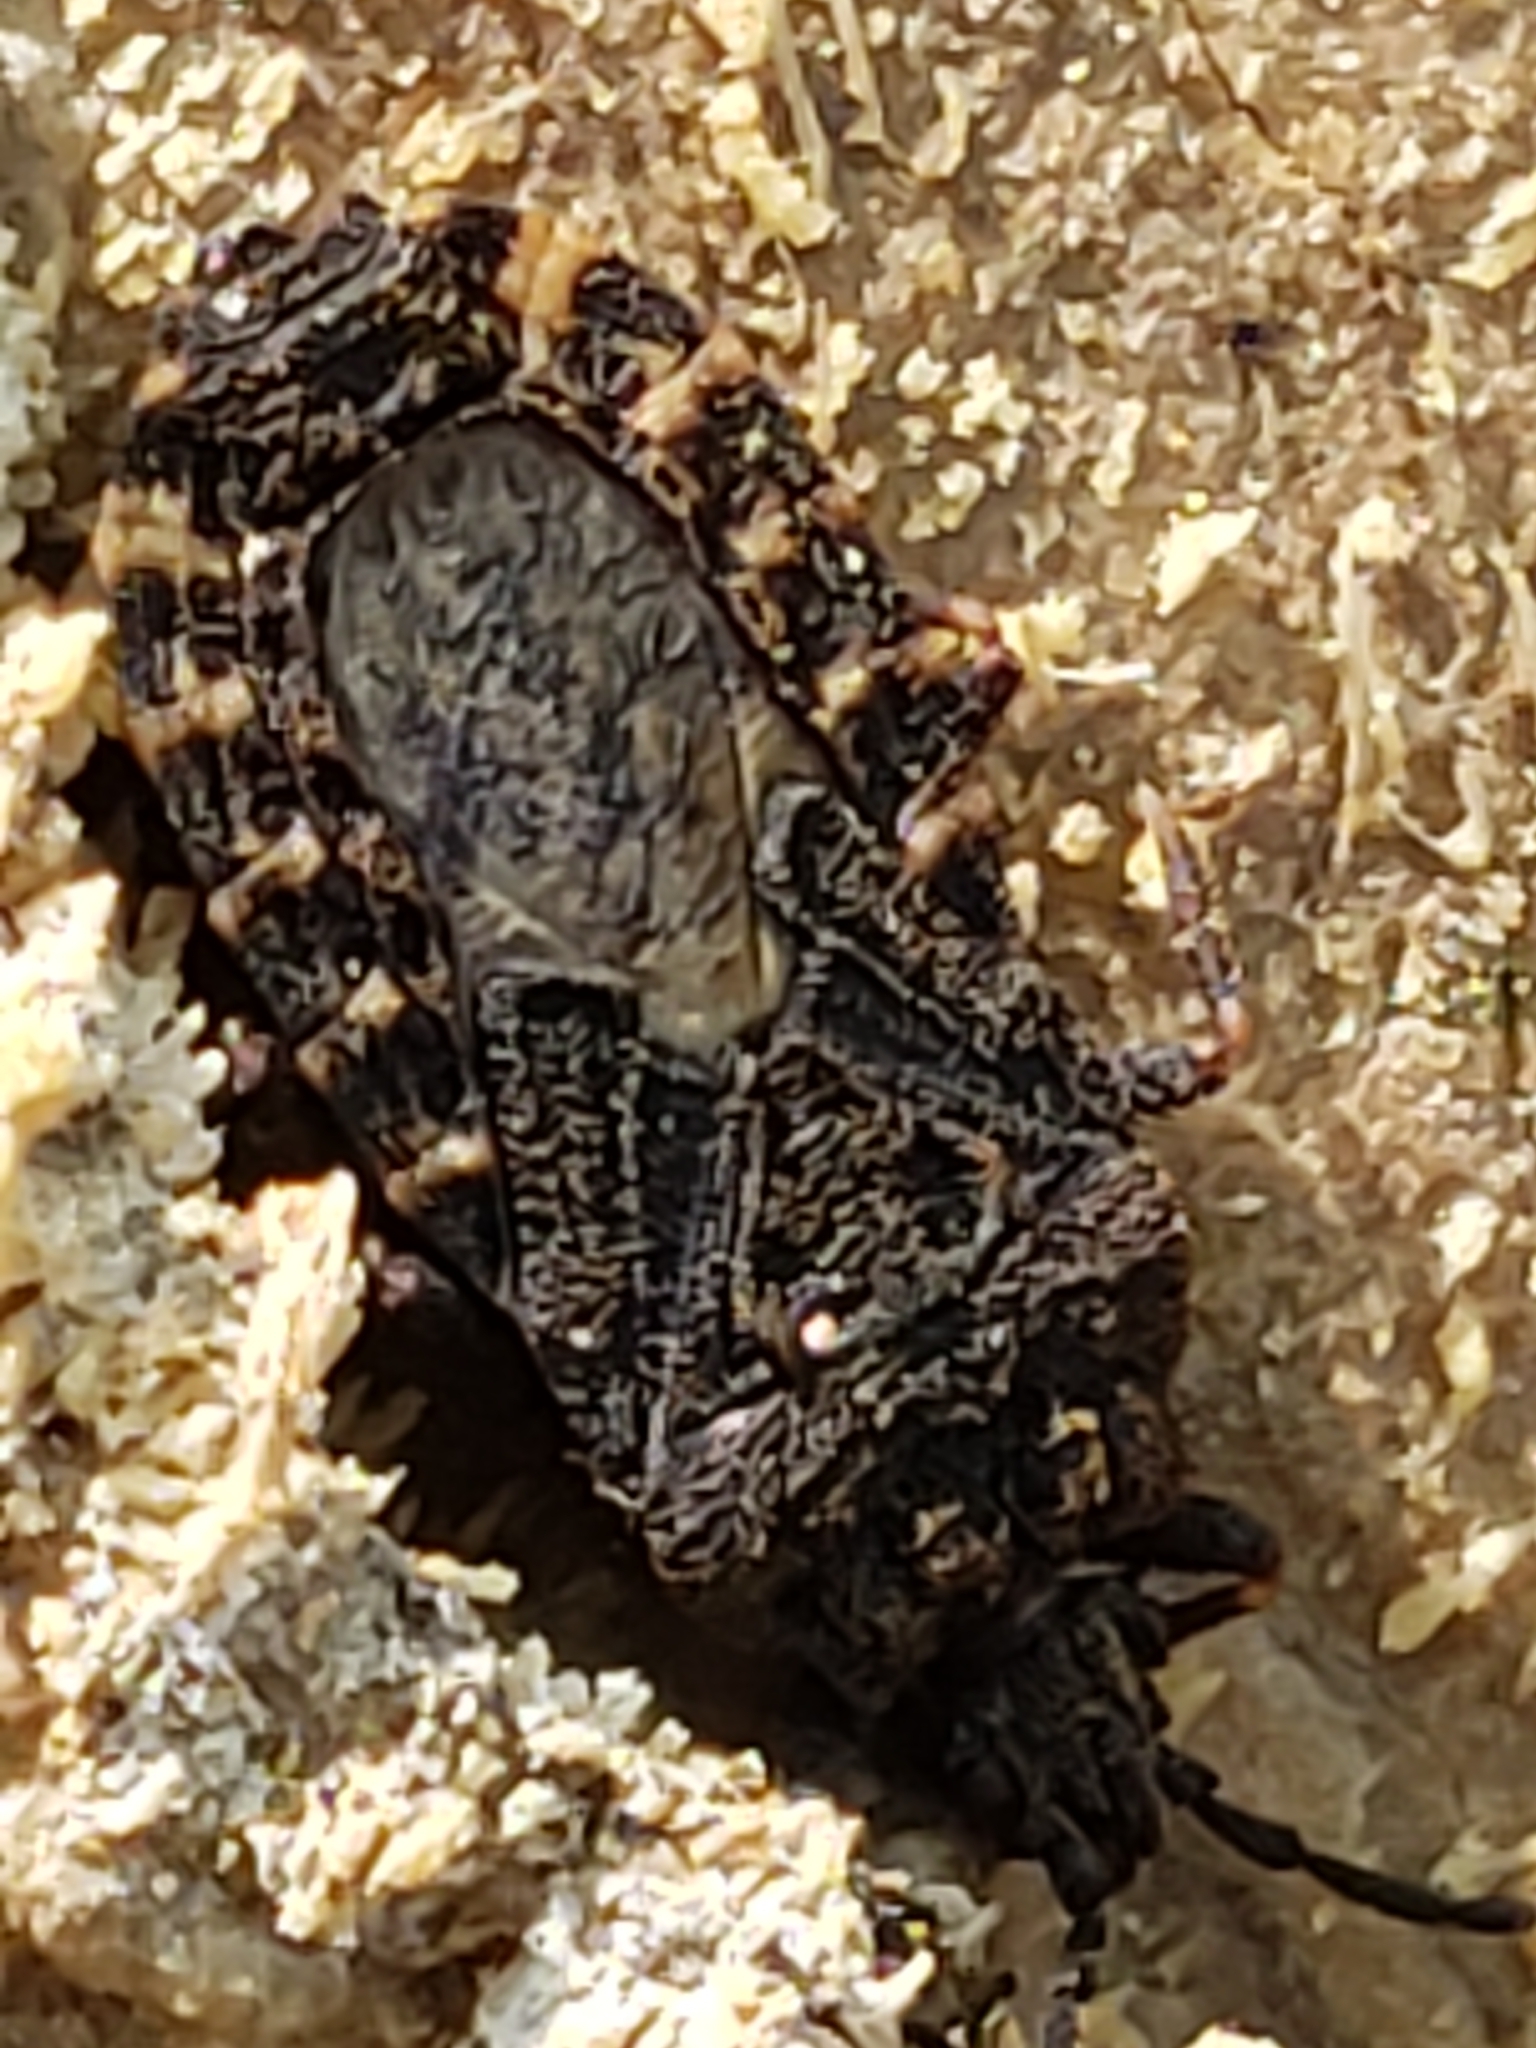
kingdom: Animalia
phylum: Arthropoda
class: Insecta
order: Hemiptera
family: Aradidae
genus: Mezira
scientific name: Mezira
